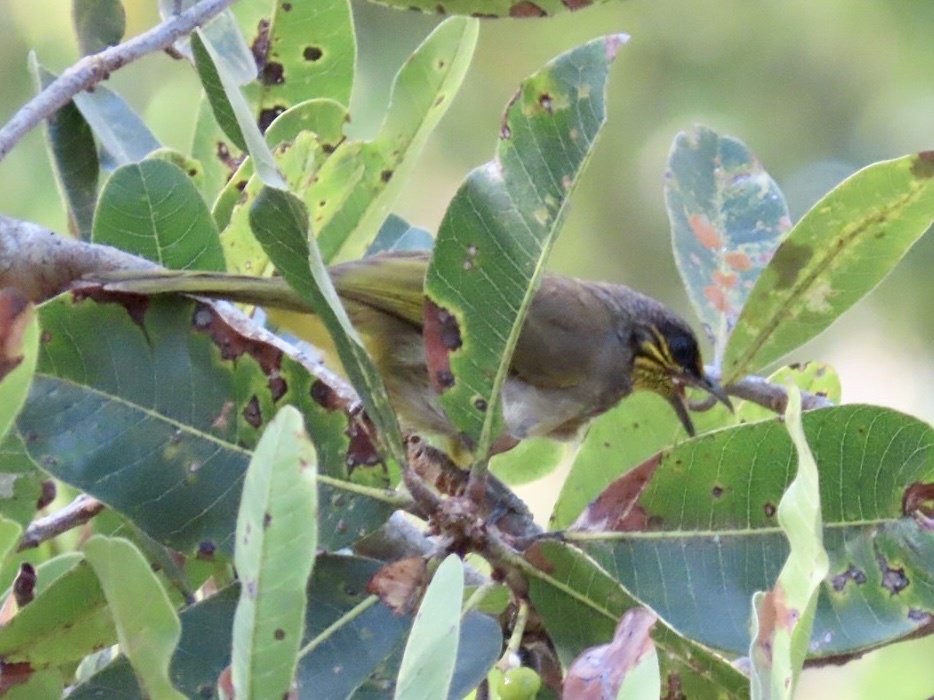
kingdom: Animalia
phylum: Chordata
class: Aves
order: Passeriformes
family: Pycnonotidae
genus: Pycnonotus
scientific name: Pycnonotus finlaysoni
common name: Stripe-throated bulbul
